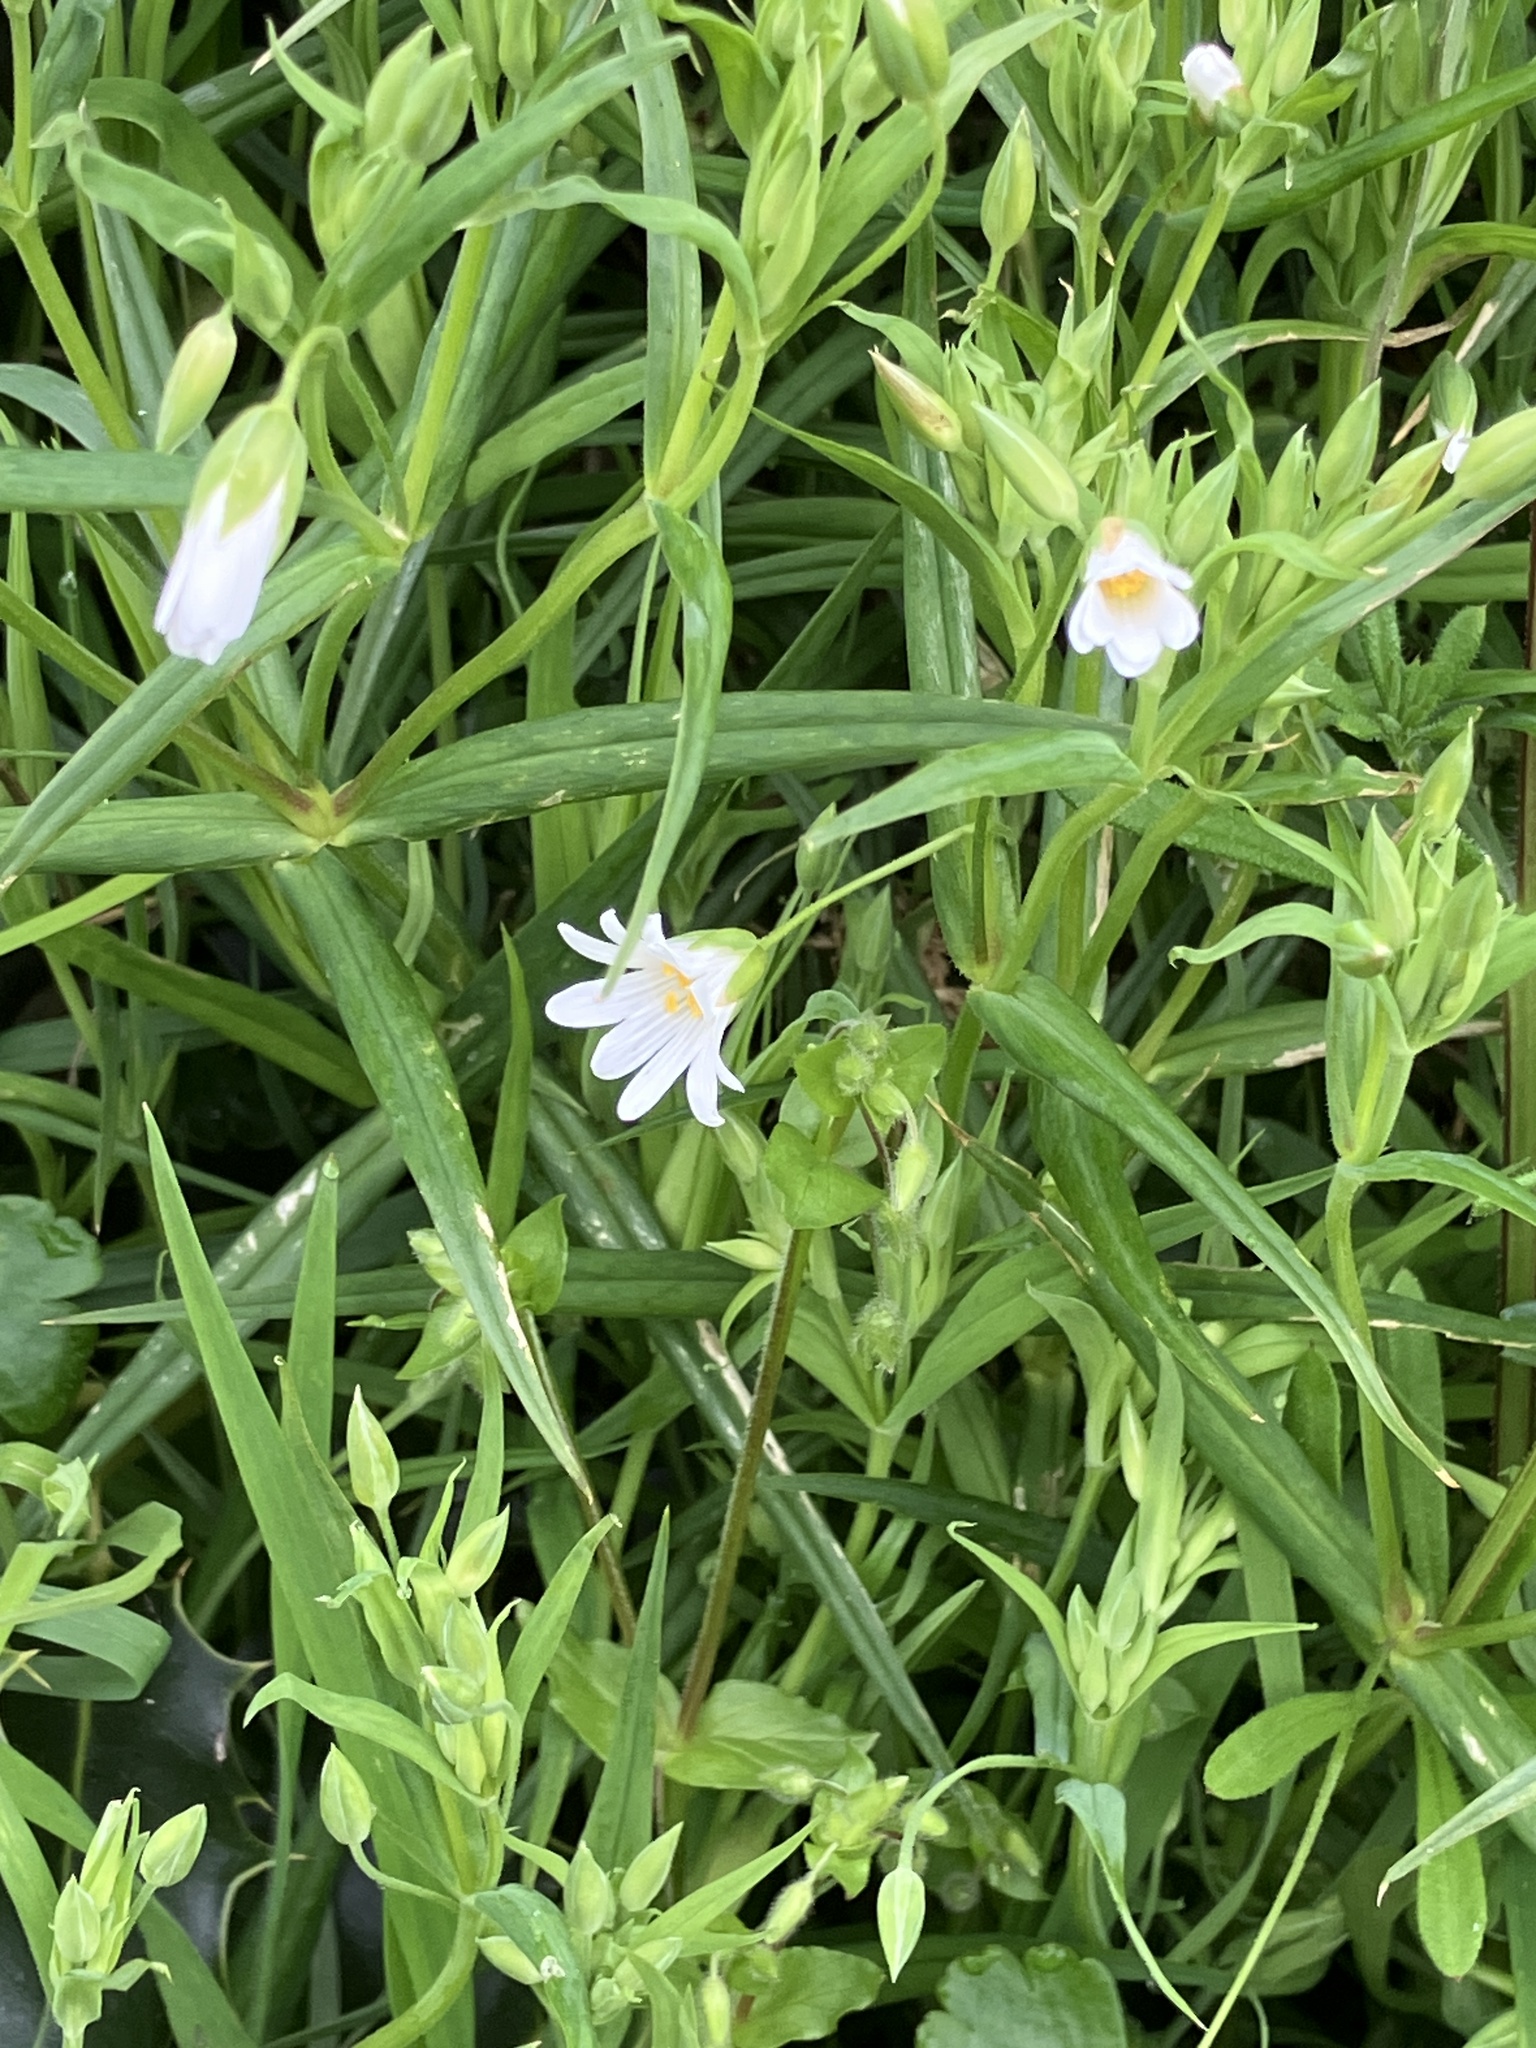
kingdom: Plantae
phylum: Tracheophyta
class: Magnoliopsida
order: Caryophyllales
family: Caryophyllaceae
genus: Rabelera
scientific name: Rabelera holostea
